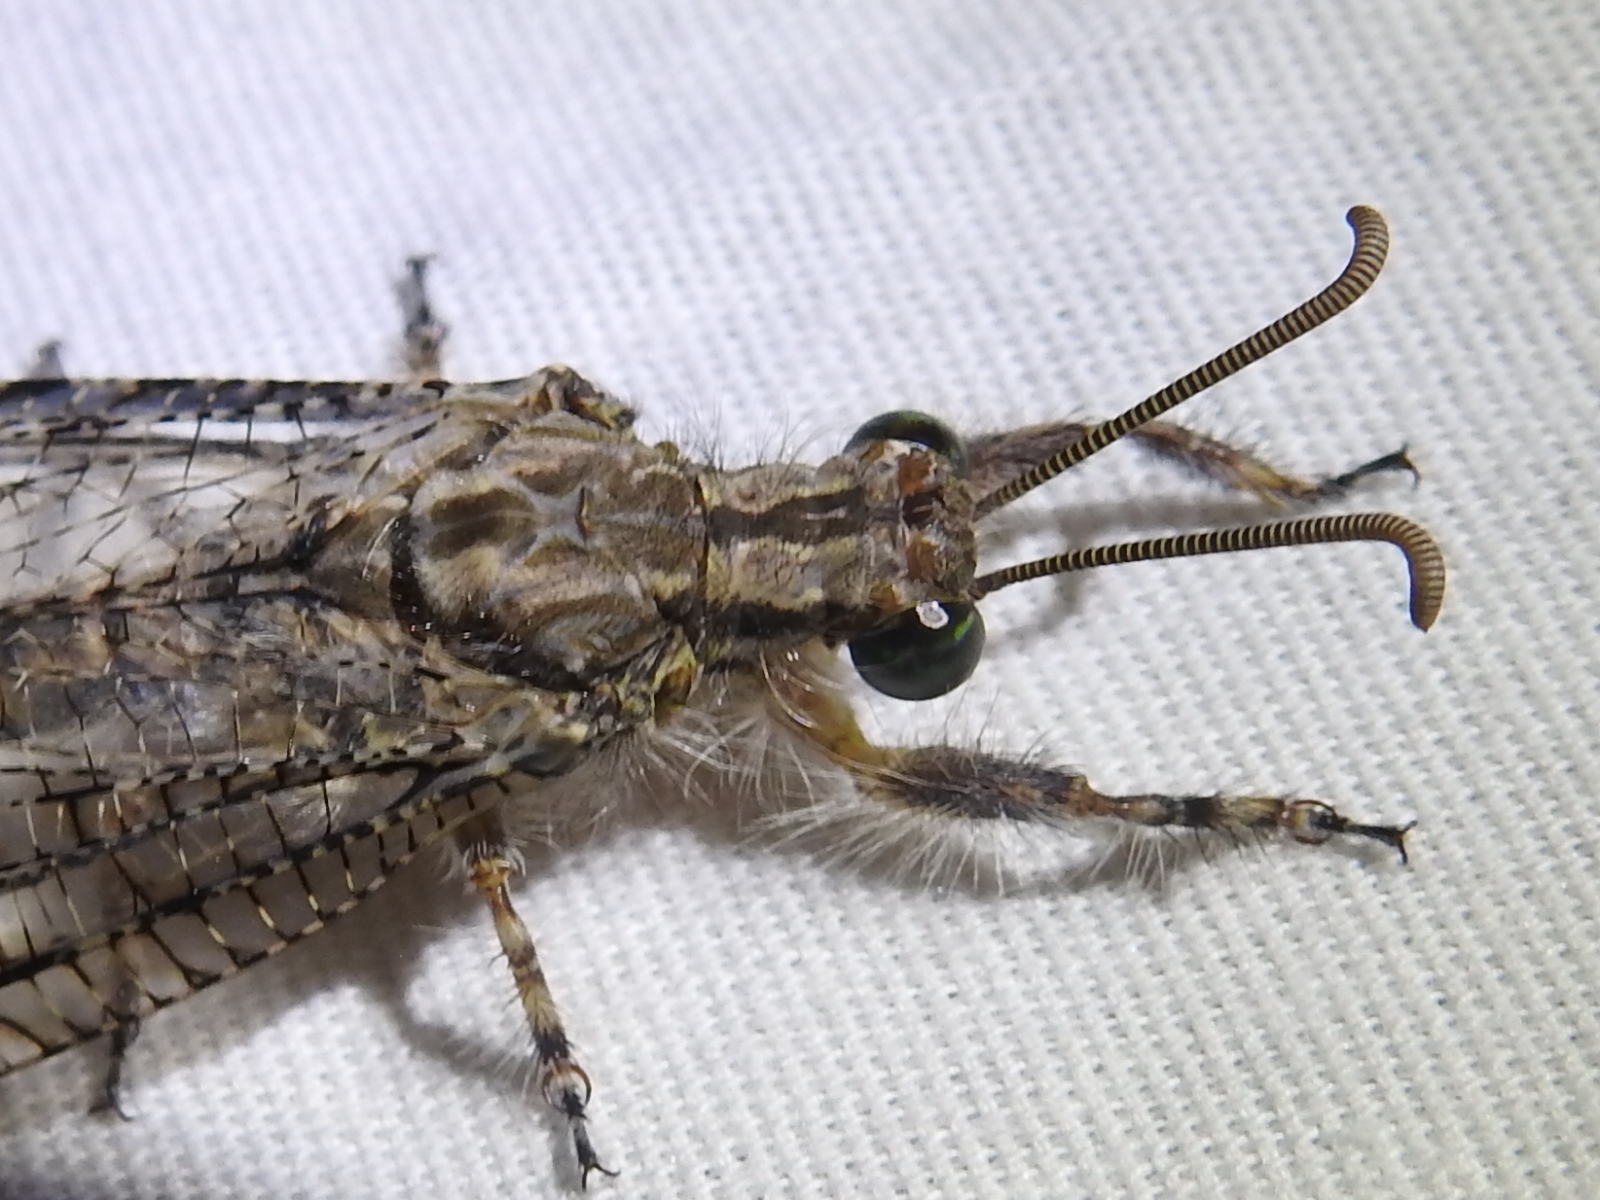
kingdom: Animalia
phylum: Arthropoda
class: Insecta
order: Neuroptera
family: Myrmeleontidae
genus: Vella
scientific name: Vella fallax
